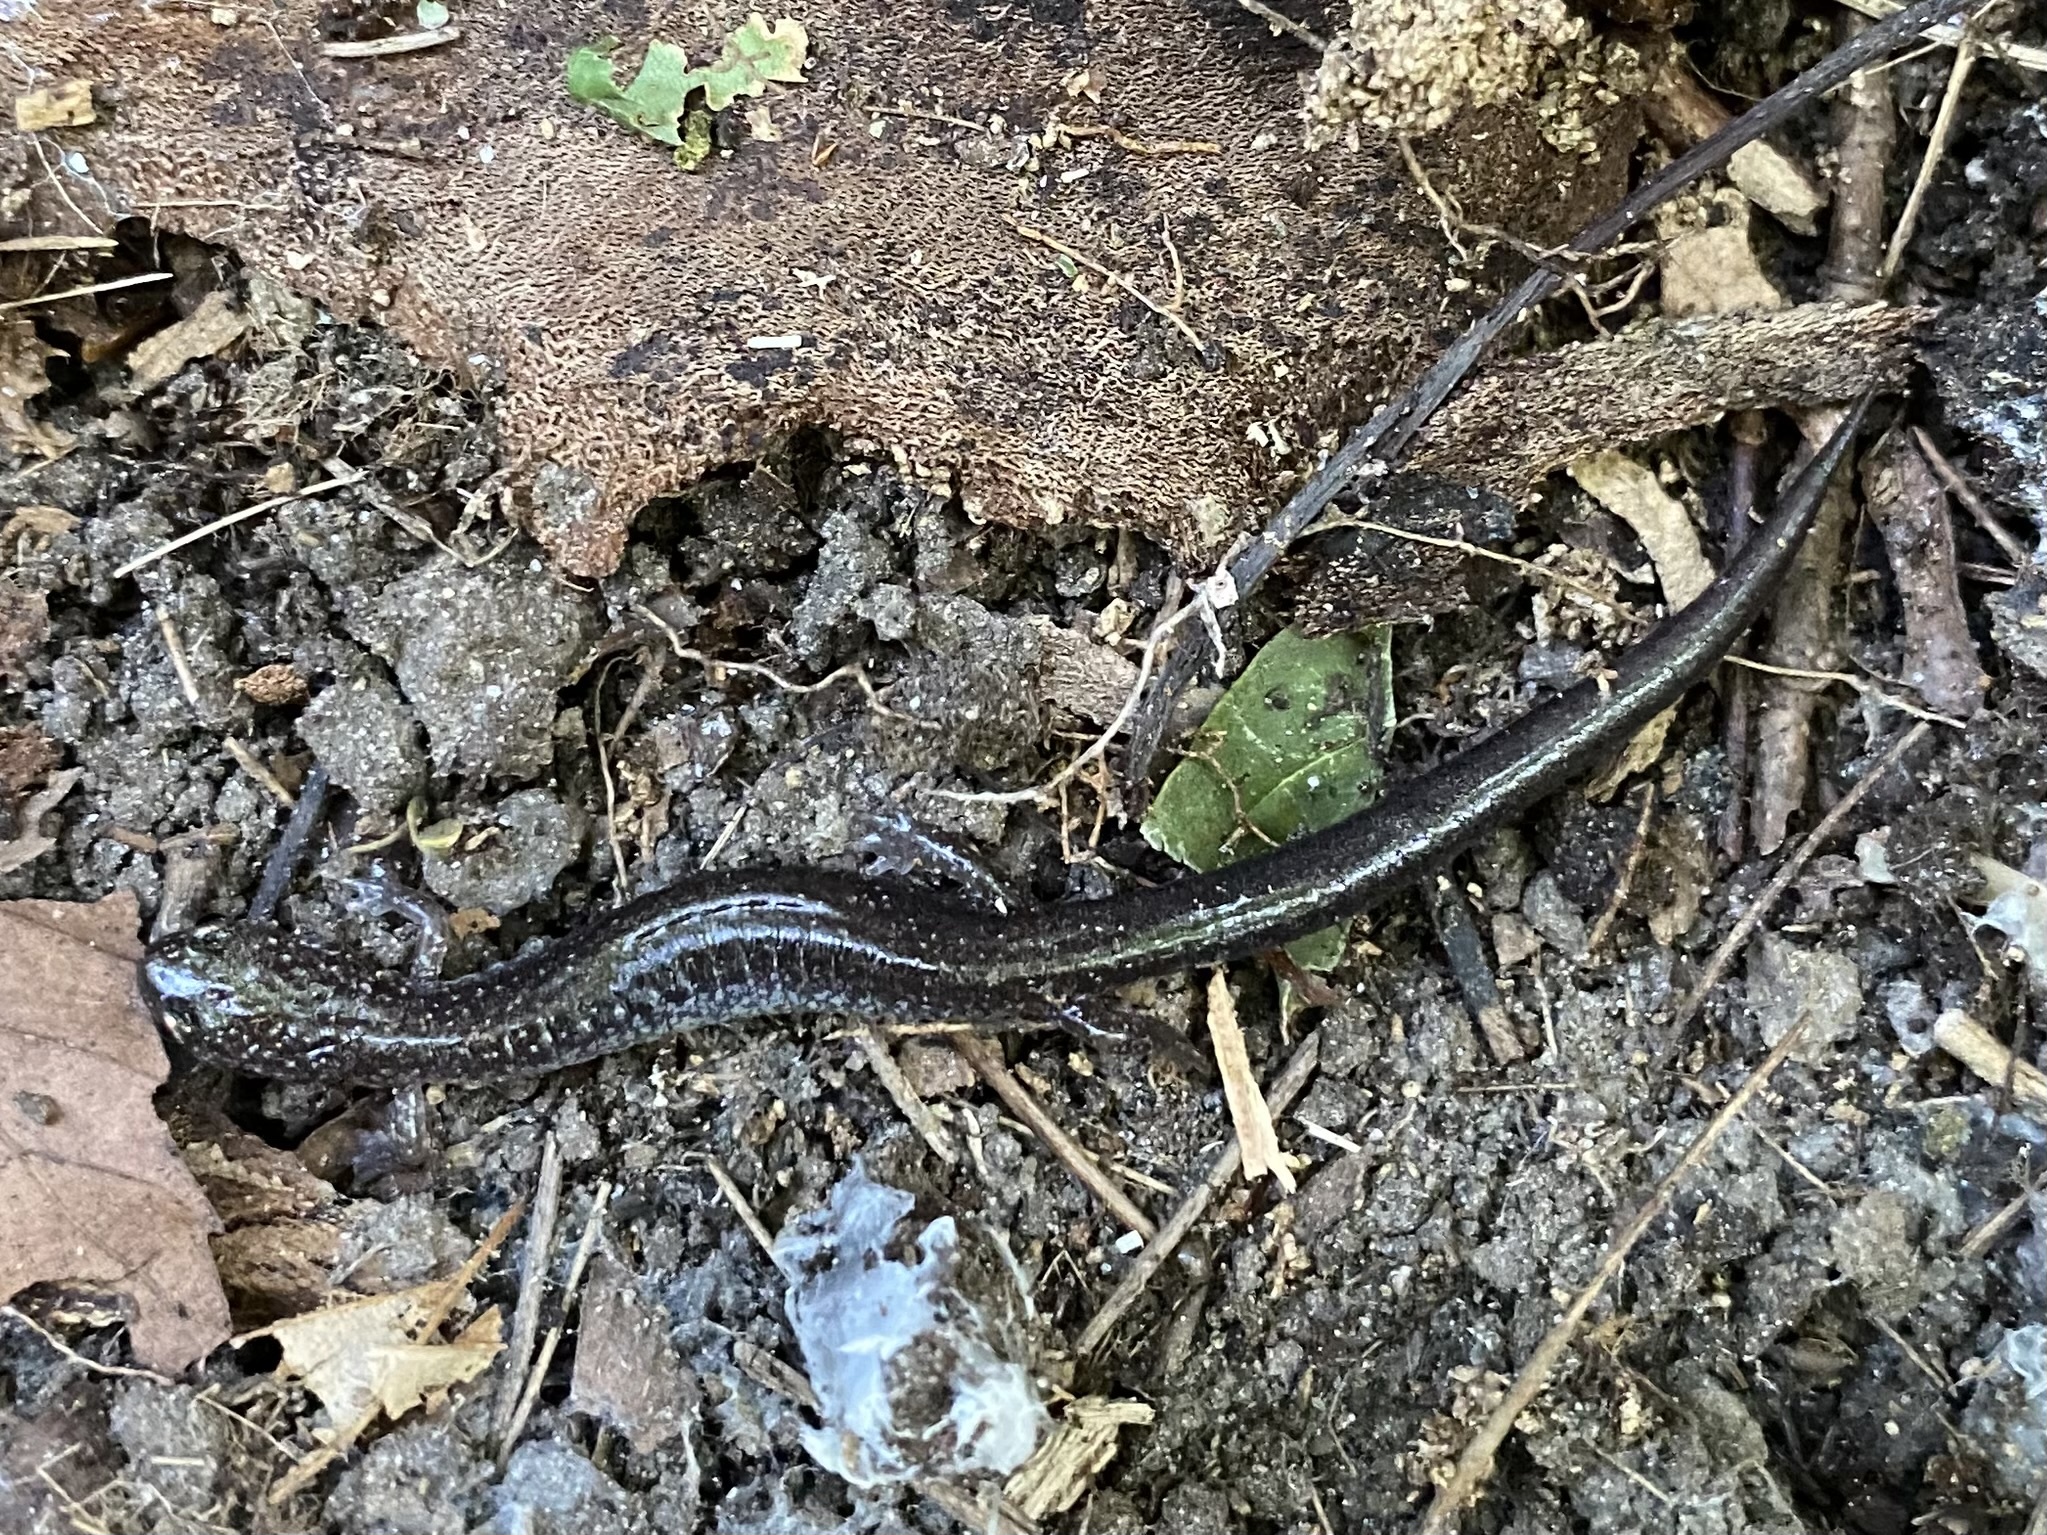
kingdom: Animalia
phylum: Chordata
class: Amphibia
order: Caudata
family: Plethodontidae
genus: Plethodon
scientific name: Plethodon cinereus
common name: Redback salamander
